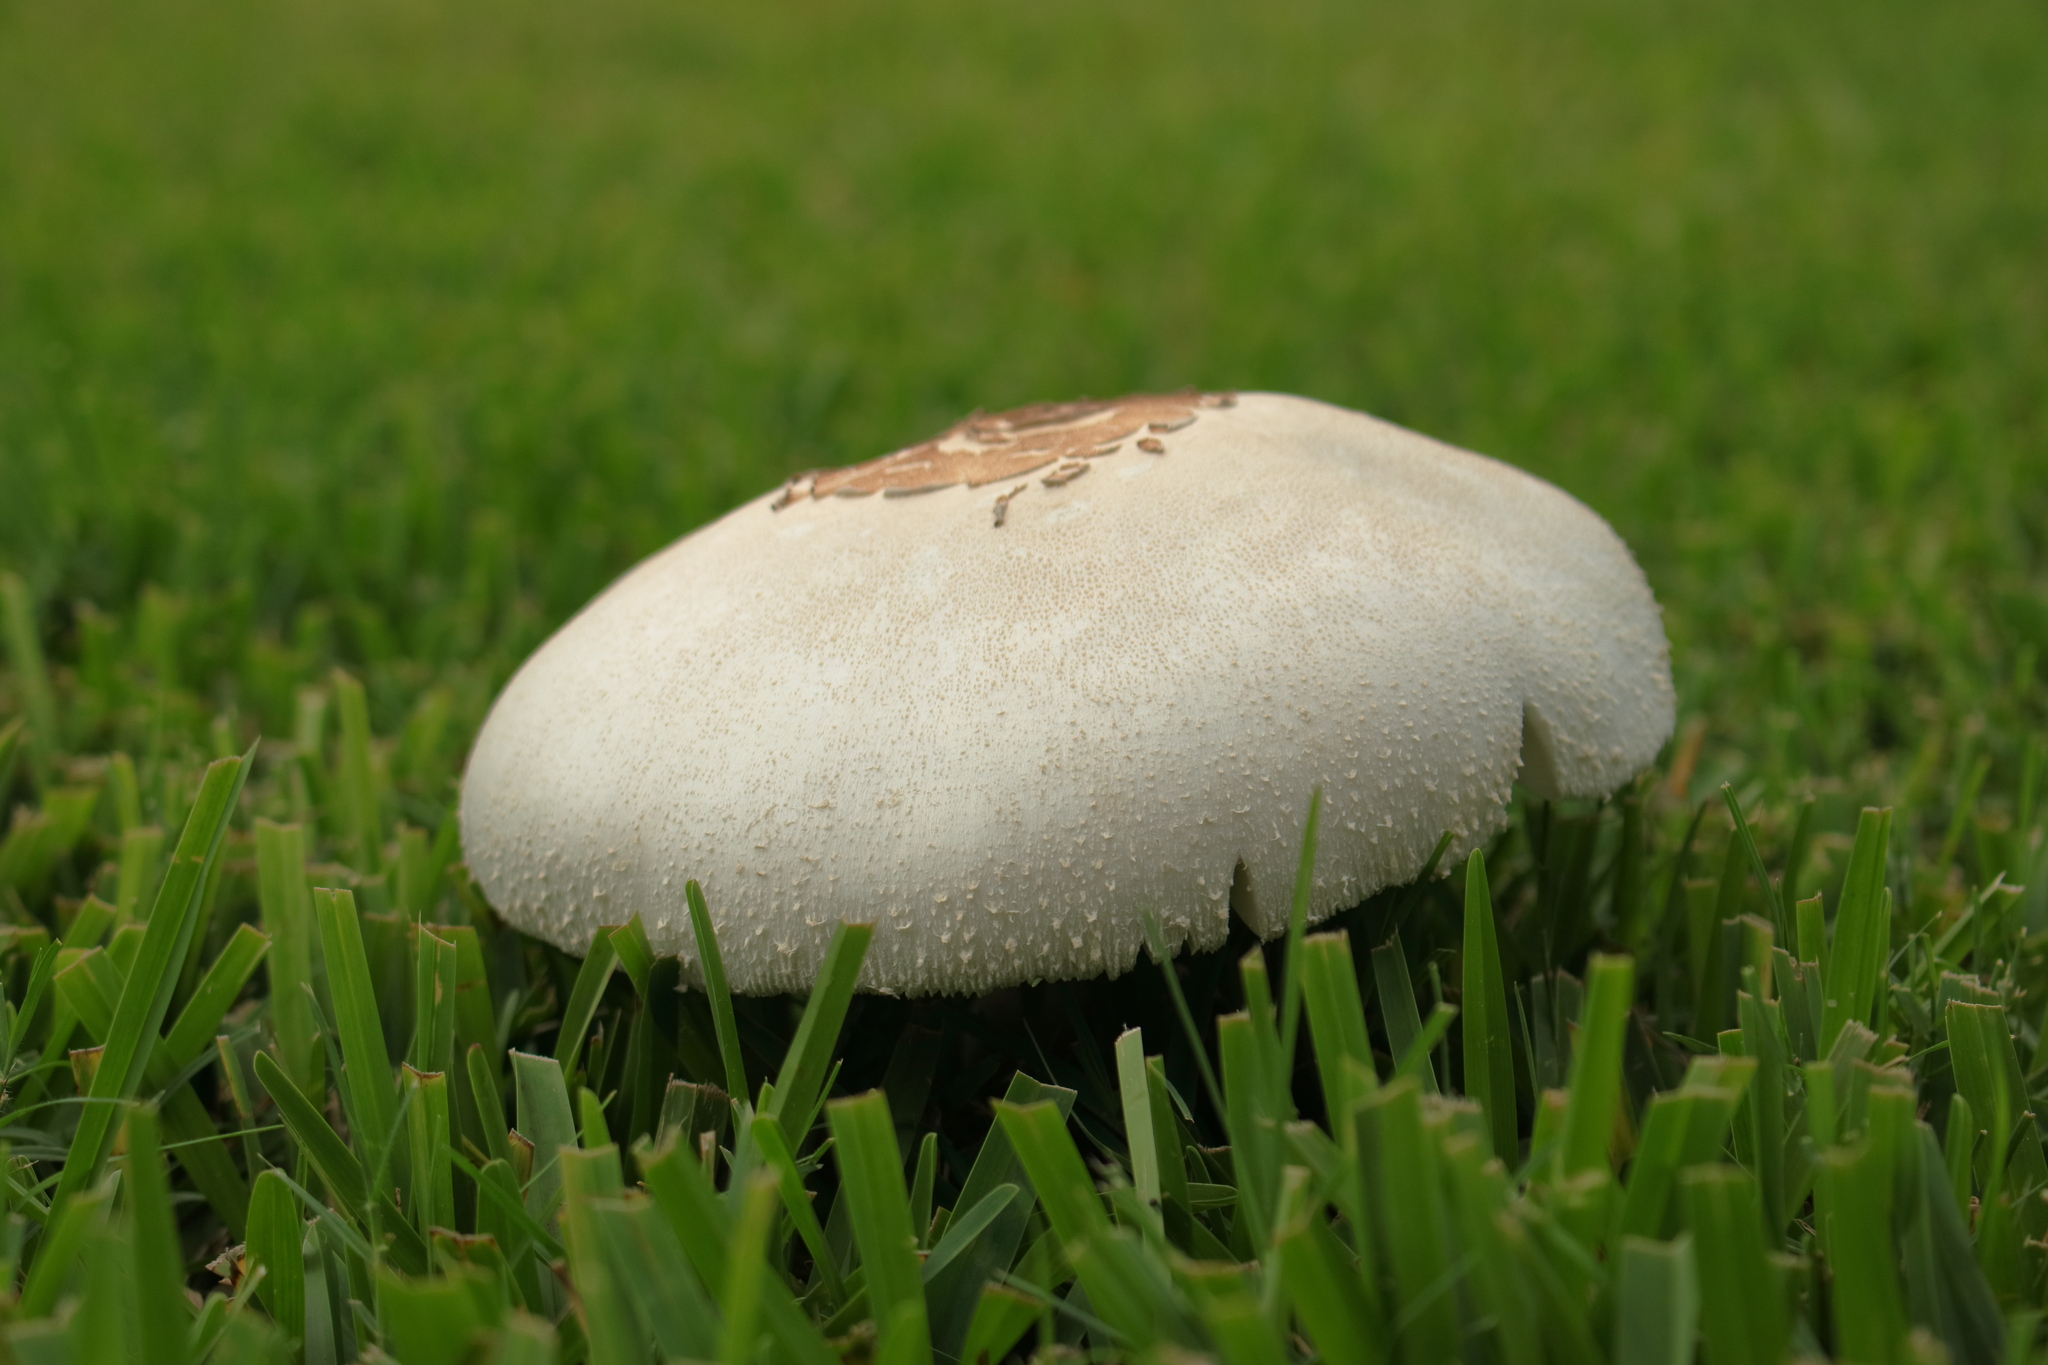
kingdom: Fungi
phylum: Basidiomycota
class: Agaricomycetes
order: Agaricales
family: Agaricaceae
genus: Chlorophyllum
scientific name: Chlorophyllum molybdites
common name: False parasol
